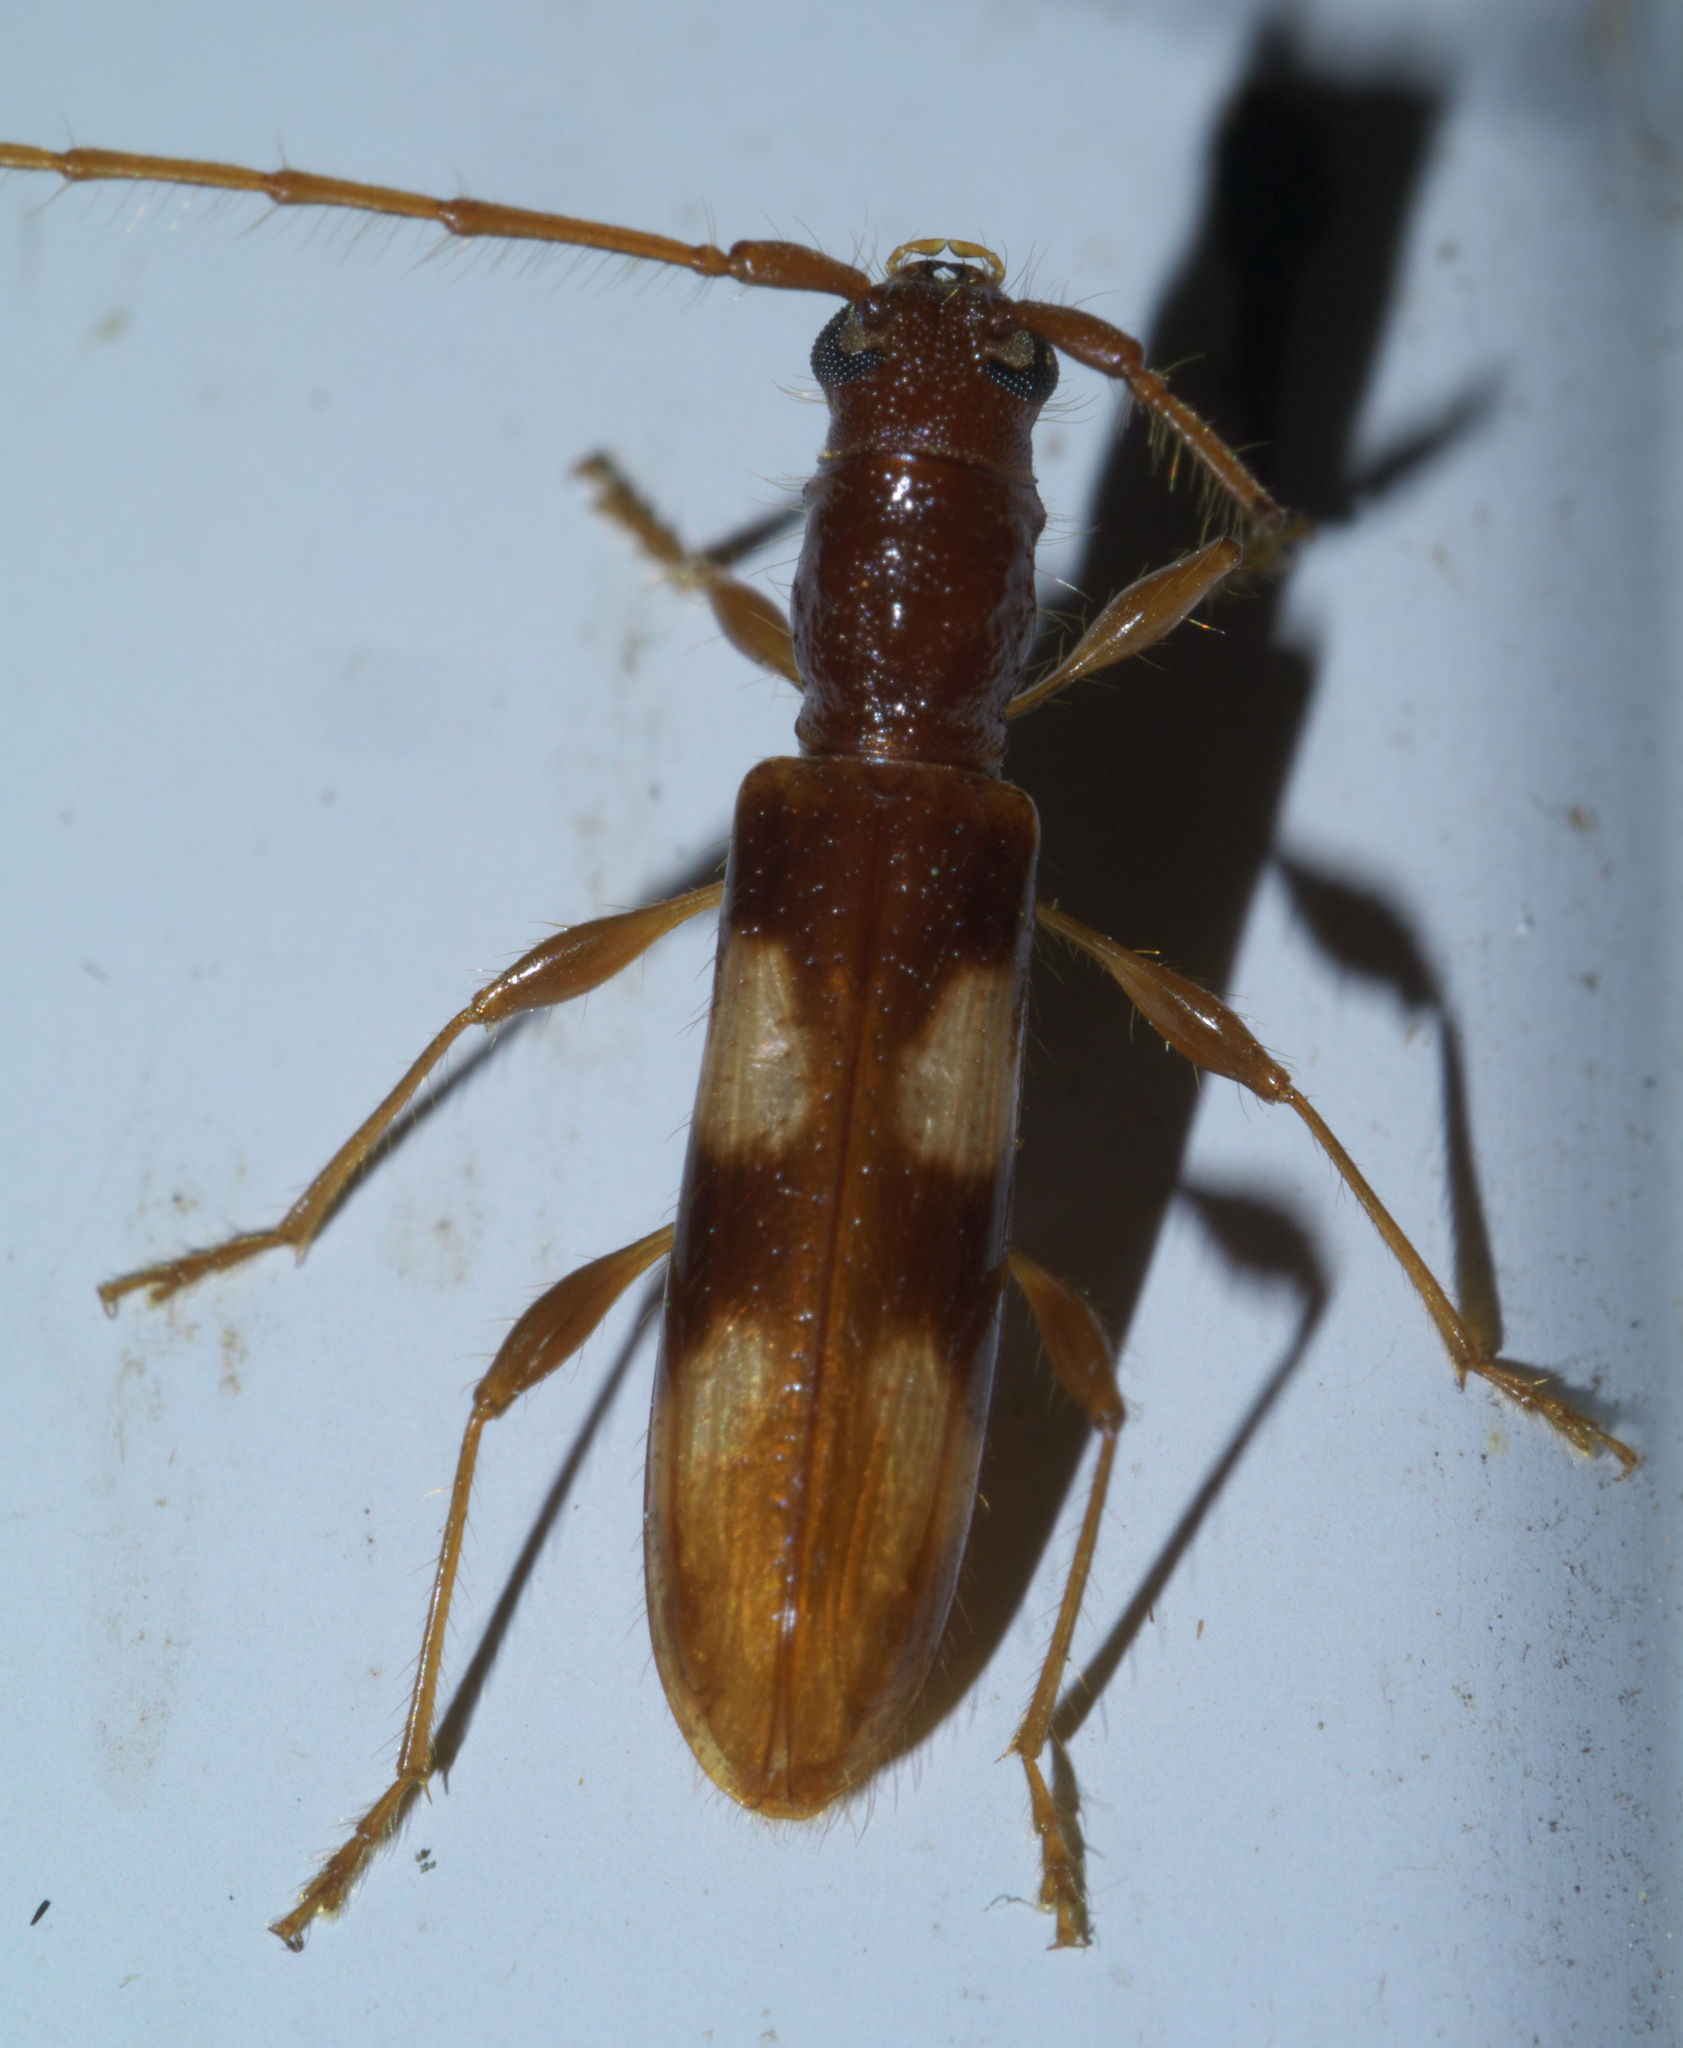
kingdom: Animalia
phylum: Arthropoda
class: Insecta
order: Coleoptera
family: Cerambycidae
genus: Heterachthes
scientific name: Heterachthes quadrimaculatus
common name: Four-spotted hickory borer
